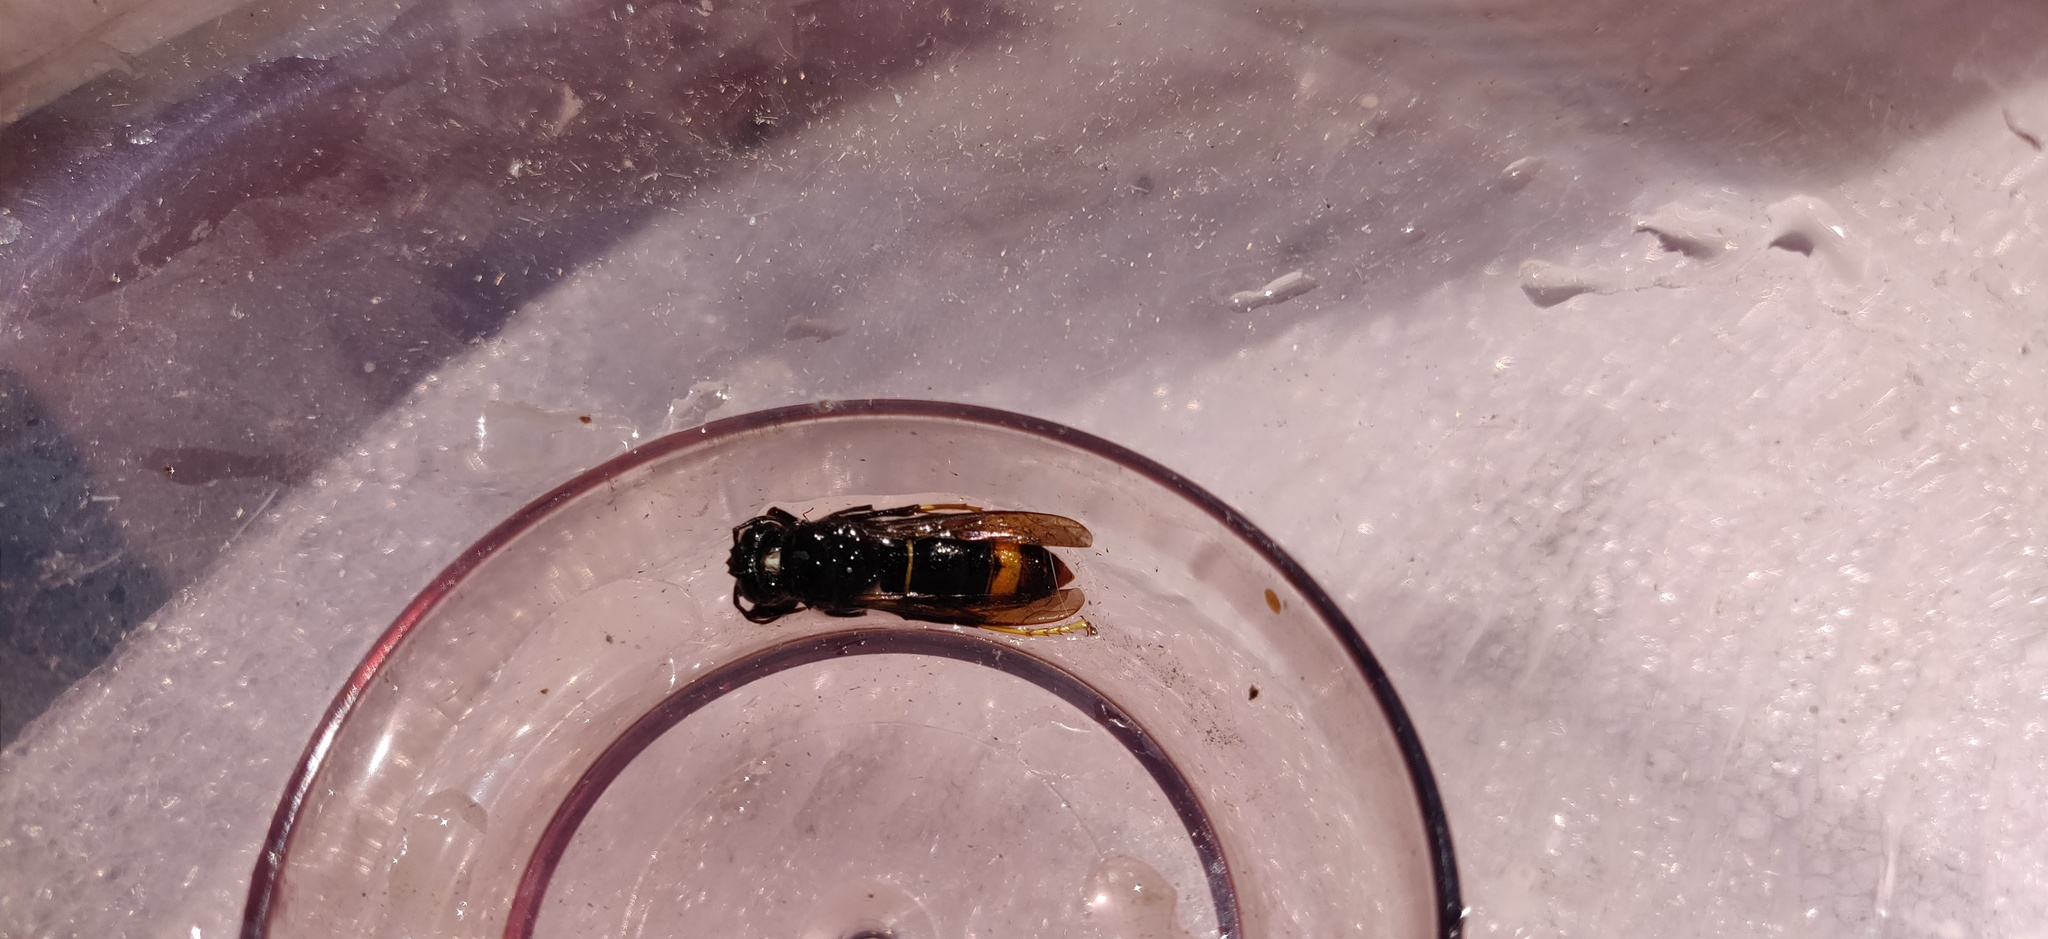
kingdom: Animalia
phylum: Arthropoda
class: Insecta
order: Hymenoptera
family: Vespidae
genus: Vespa
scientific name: Vespa velutina
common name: Asian hornet
